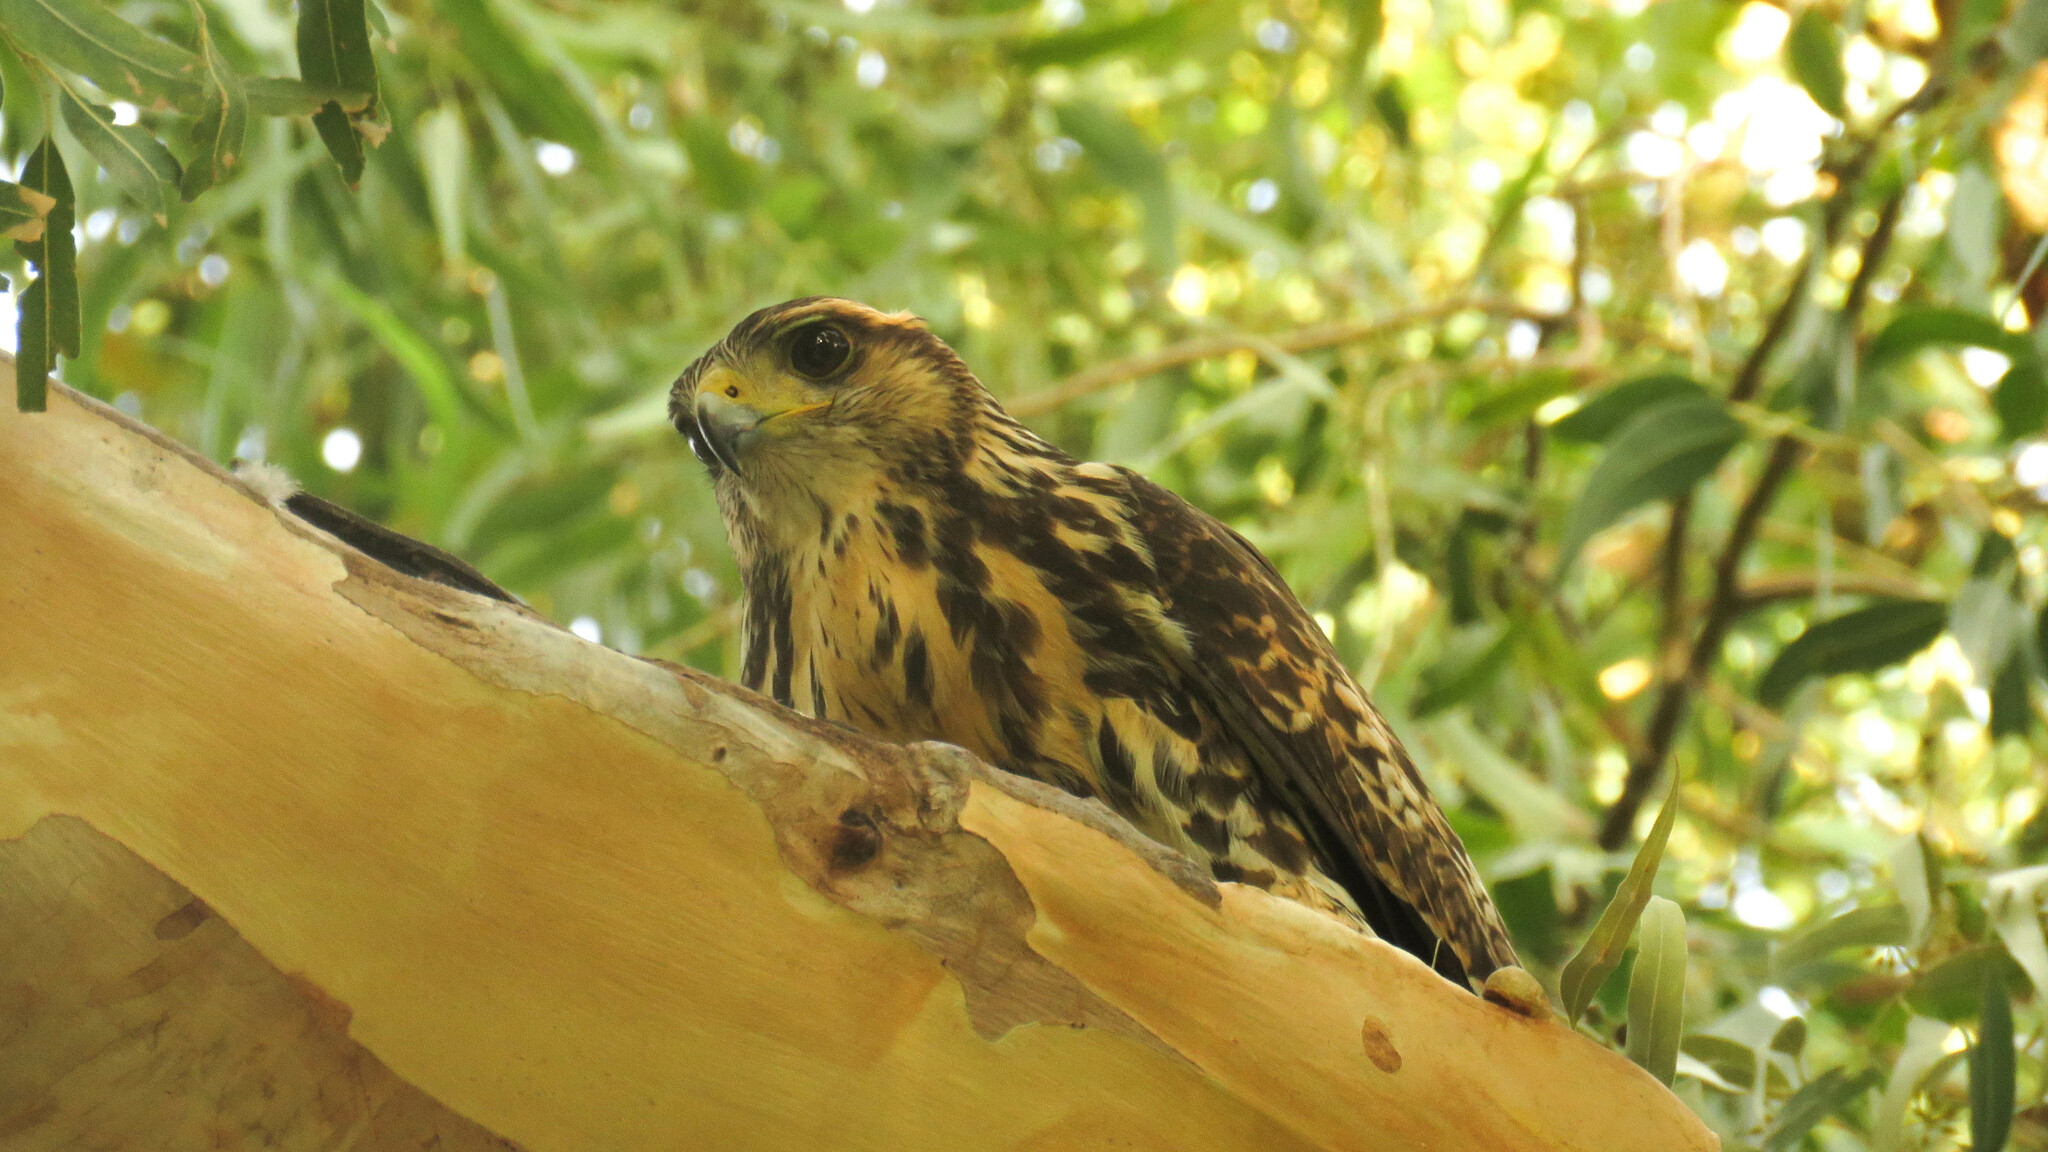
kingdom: Animalia
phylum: Chordata
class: Aves
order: Accipitriformes
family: Accipitridae
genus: Parabuteo
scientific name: Parabuteo unicinctus
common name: Harris's hawk
